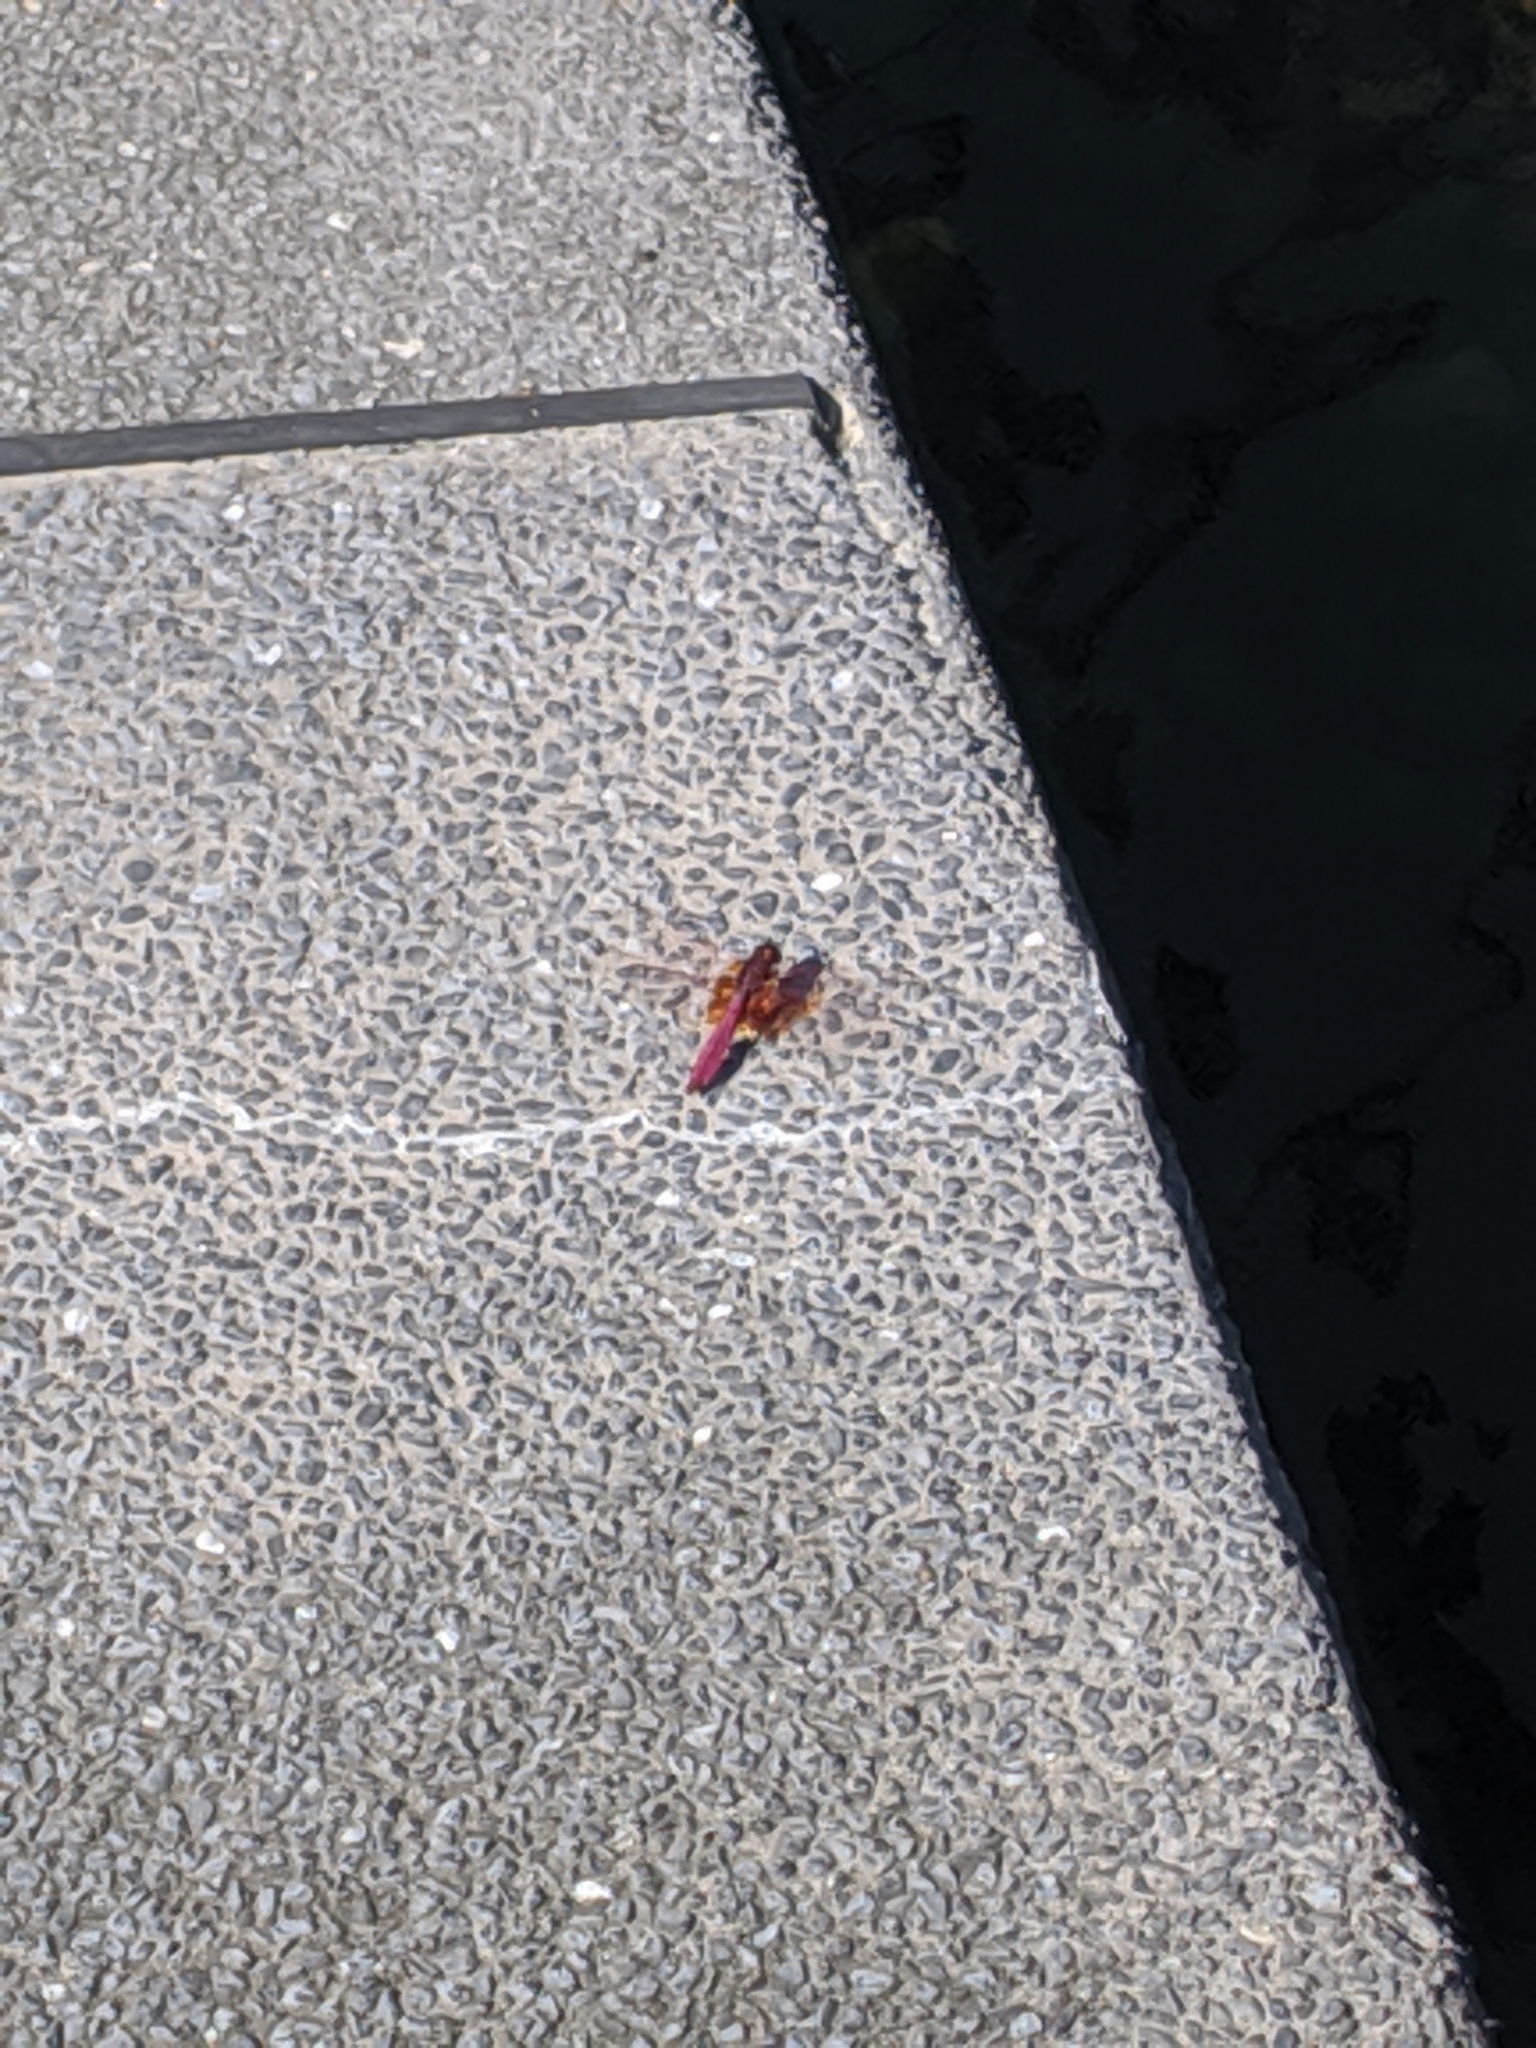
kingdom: Animalia
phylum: Arthropoda
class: Insecta
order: Odonata
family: Libellulidae
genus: Trithemis
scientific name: Trithemis aurora
